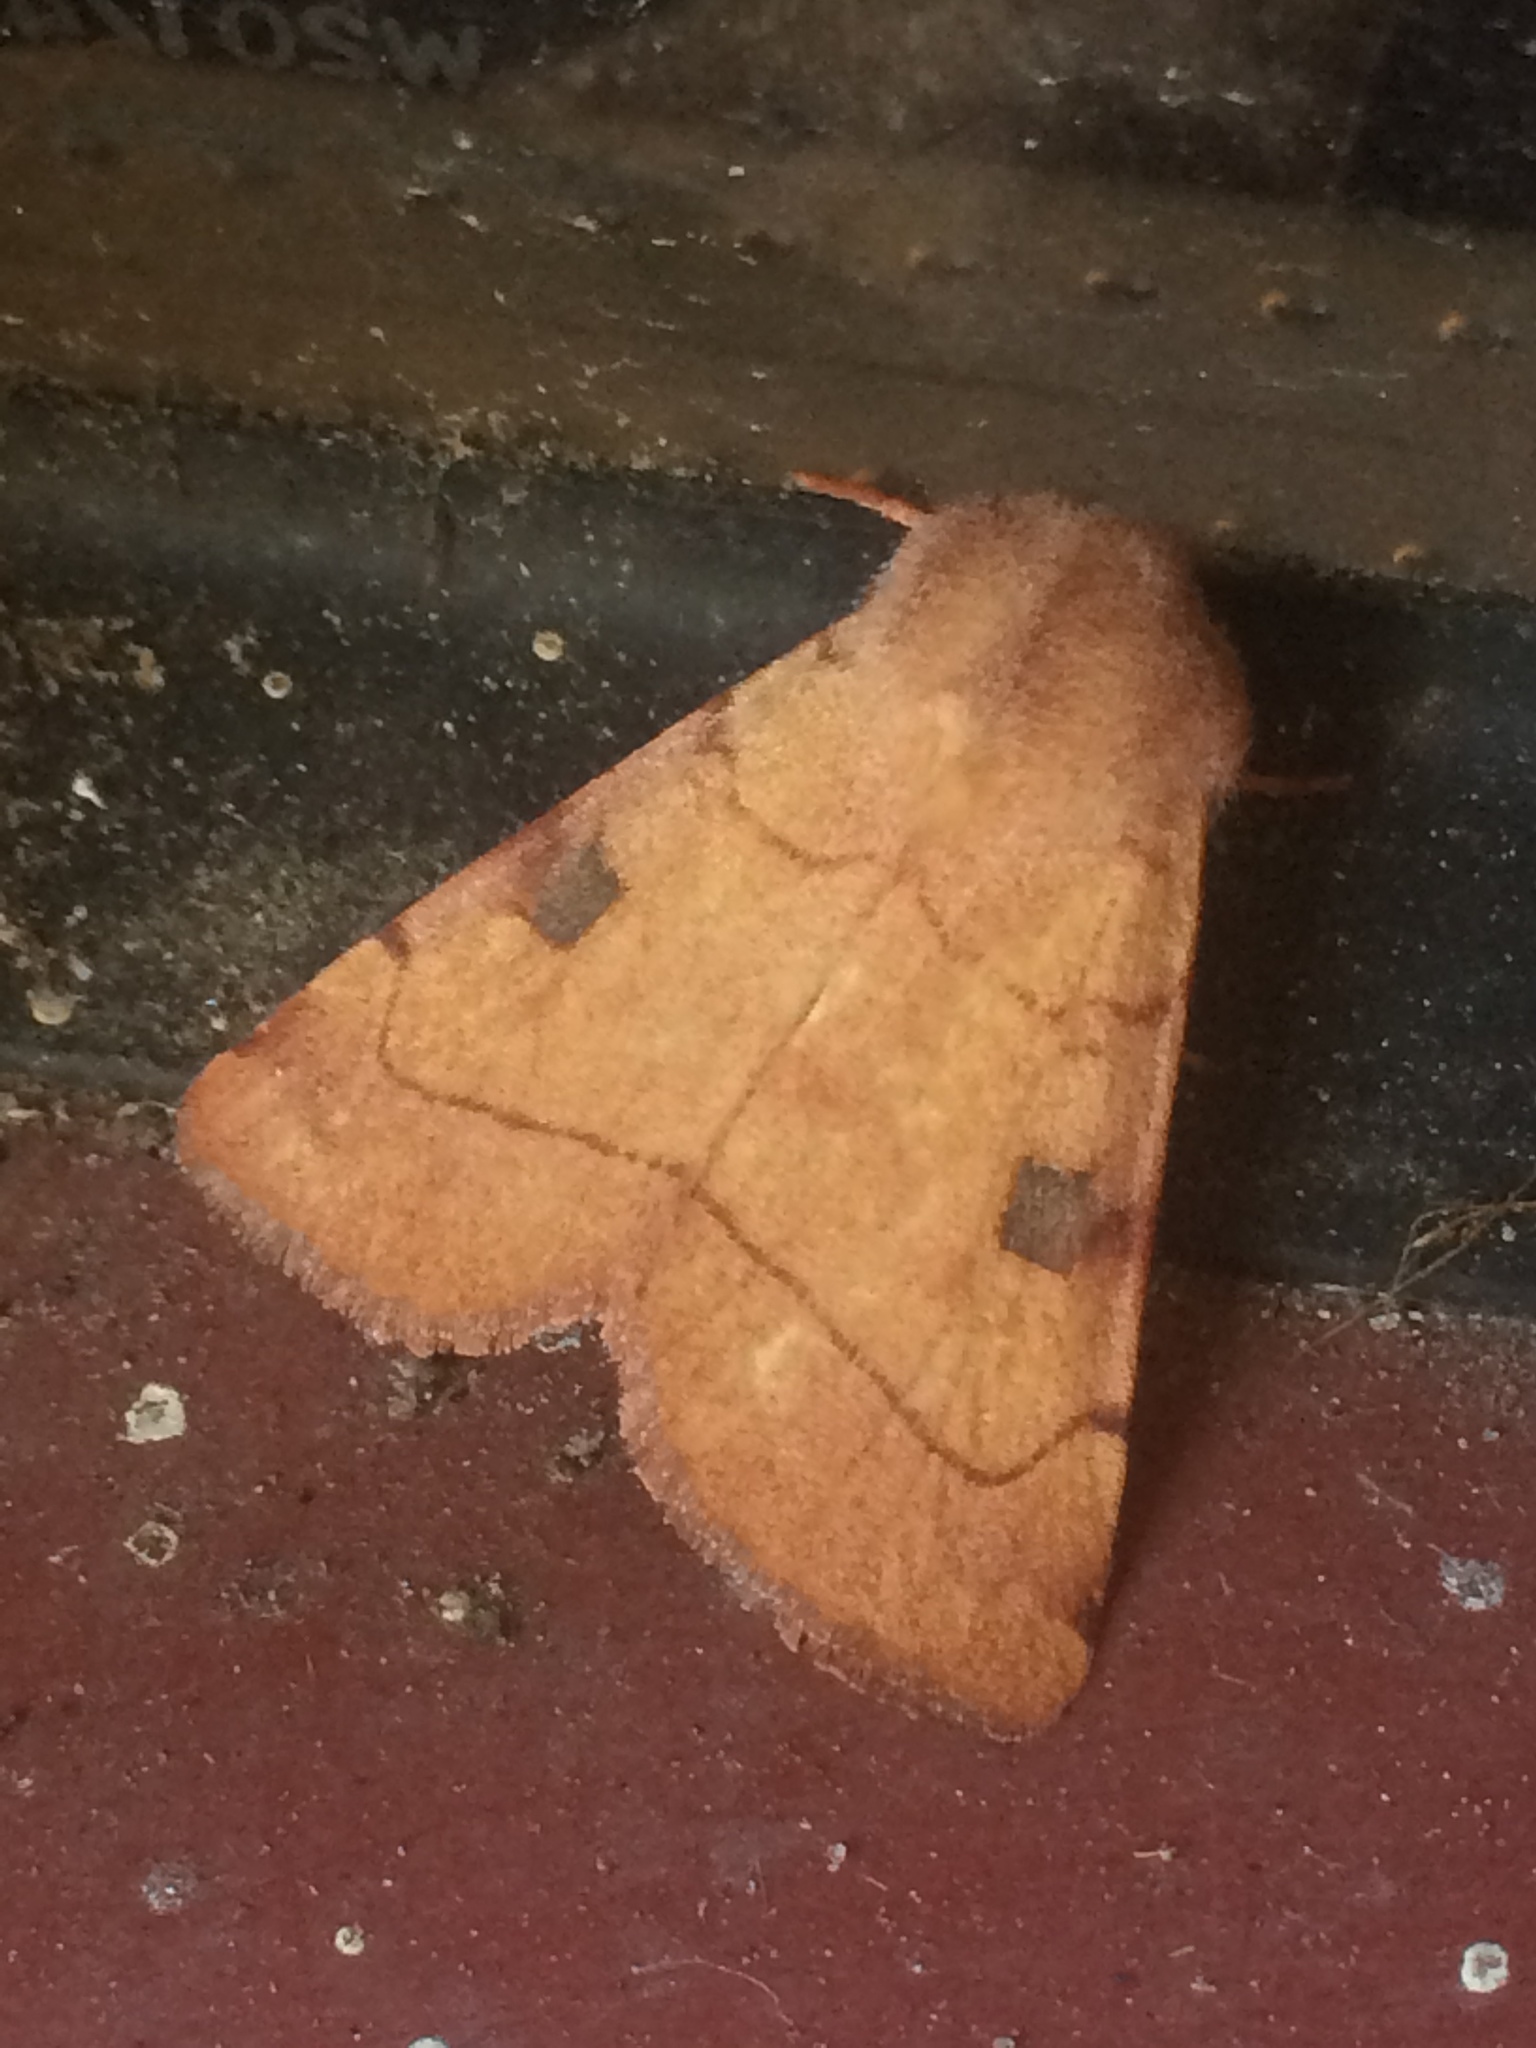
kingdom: Animalia
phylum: Arthropoda
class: Insecta
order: Lepidoptera
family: Noctuidae
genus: Choephora
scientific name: Choephora fungorum
